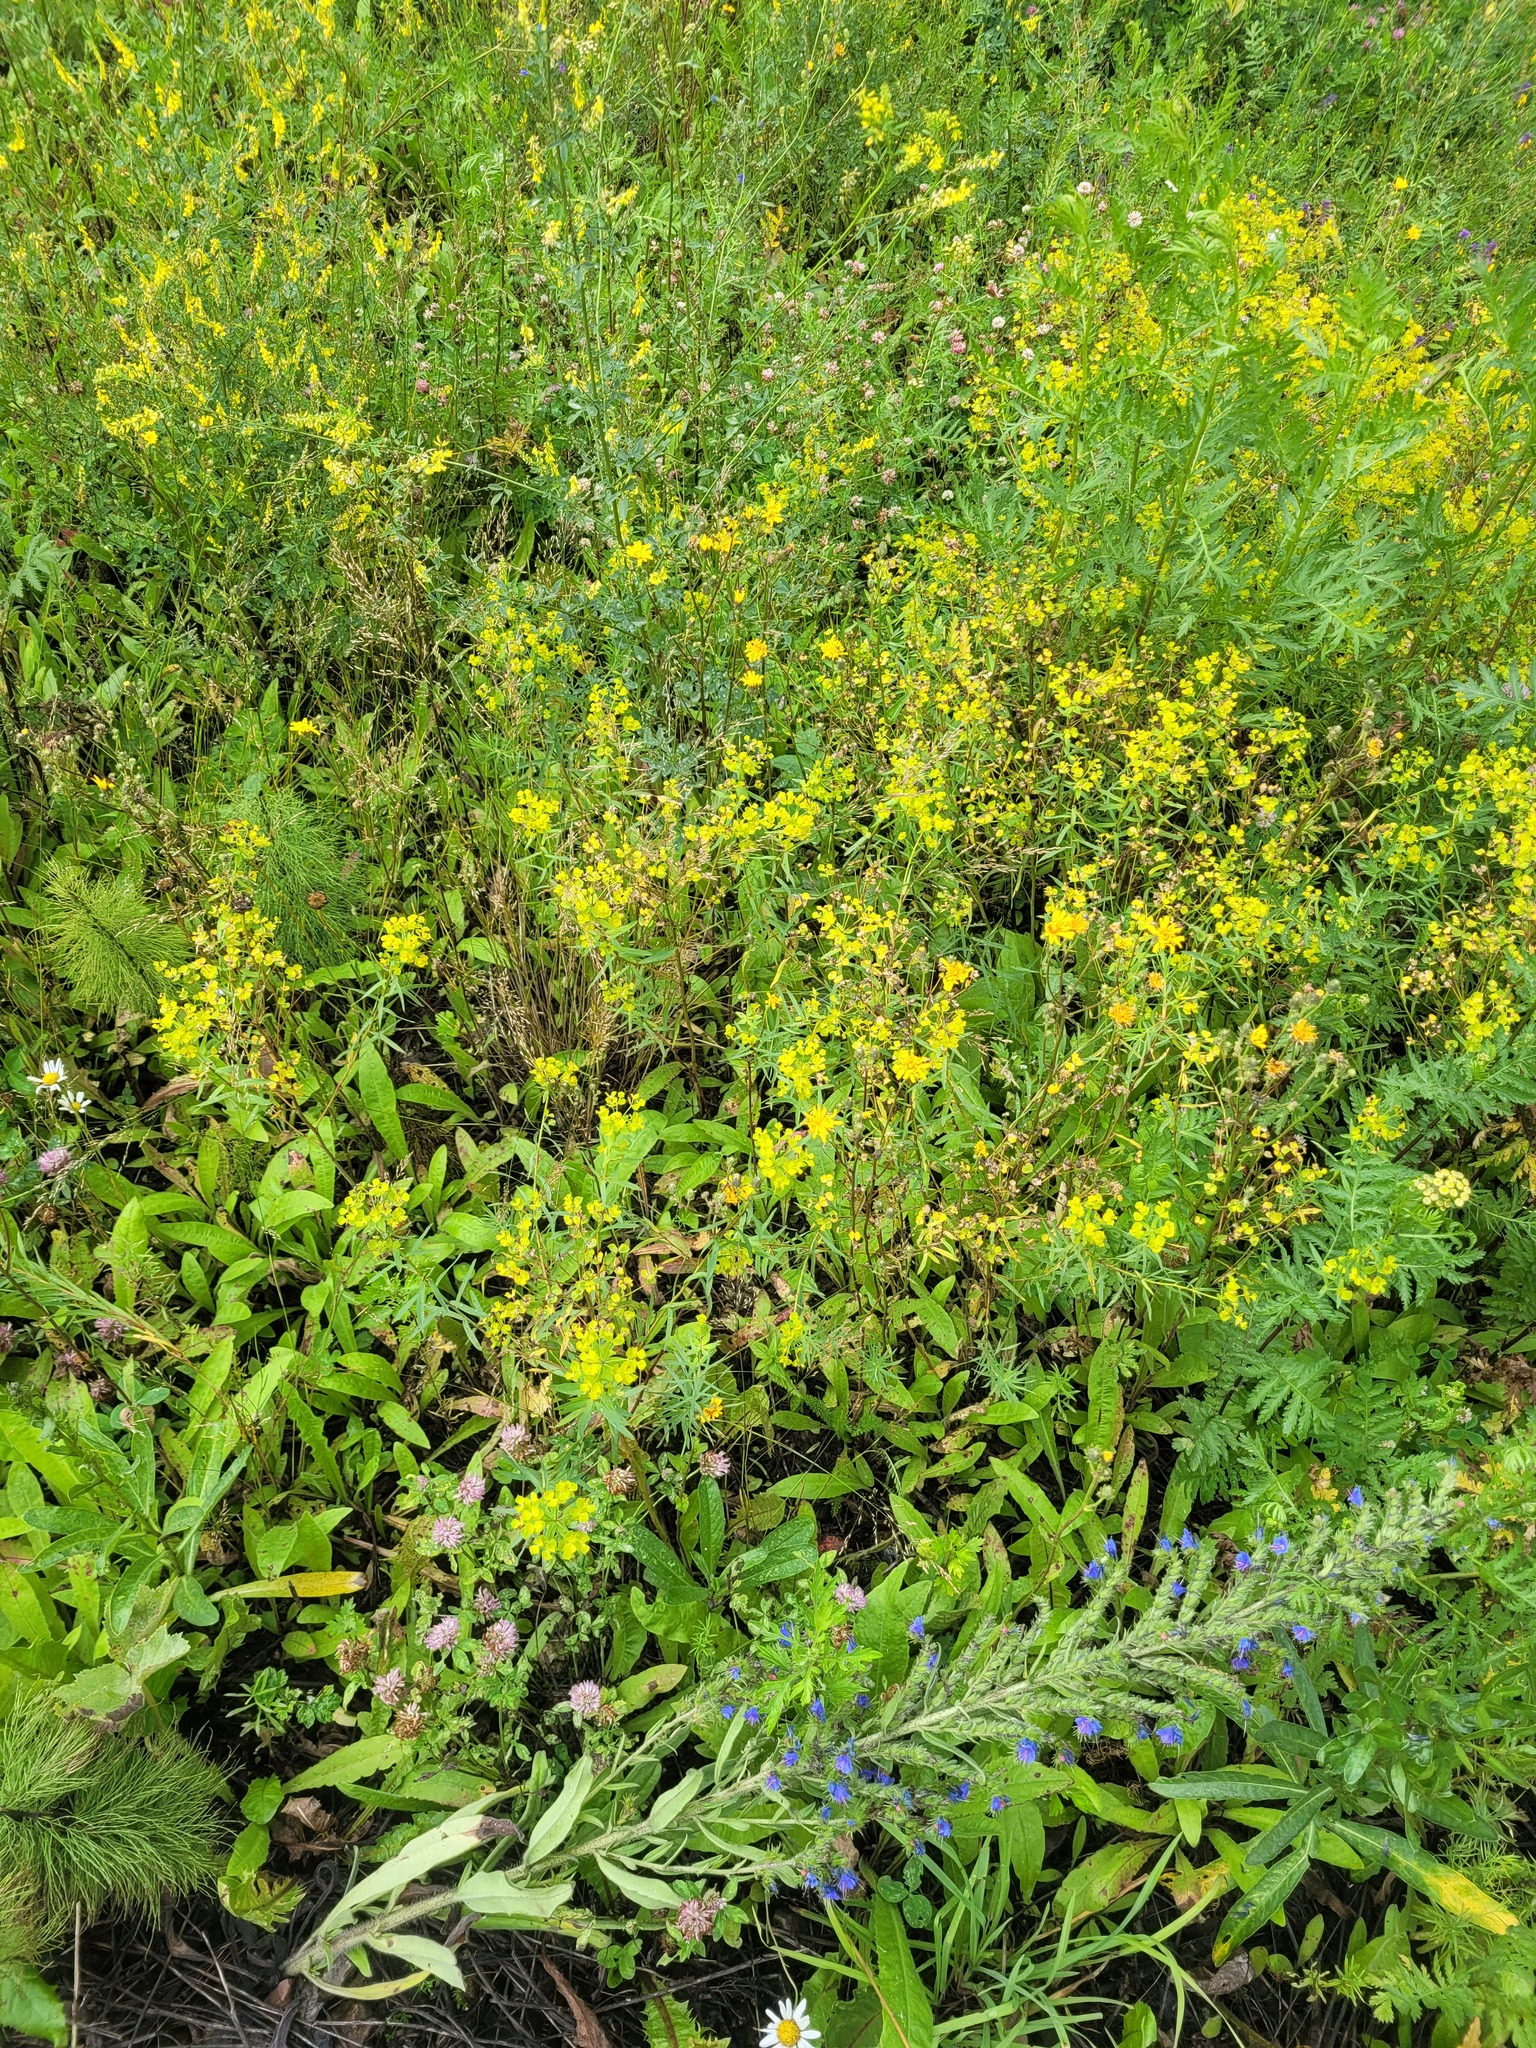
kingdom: Plantae
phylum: Tracheophyta
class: Magnoliopsida
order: Malpighiales
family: Euphorbiaceae
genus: Euphorbia
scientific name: Euphorbia virgata
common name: Leafy spurge
